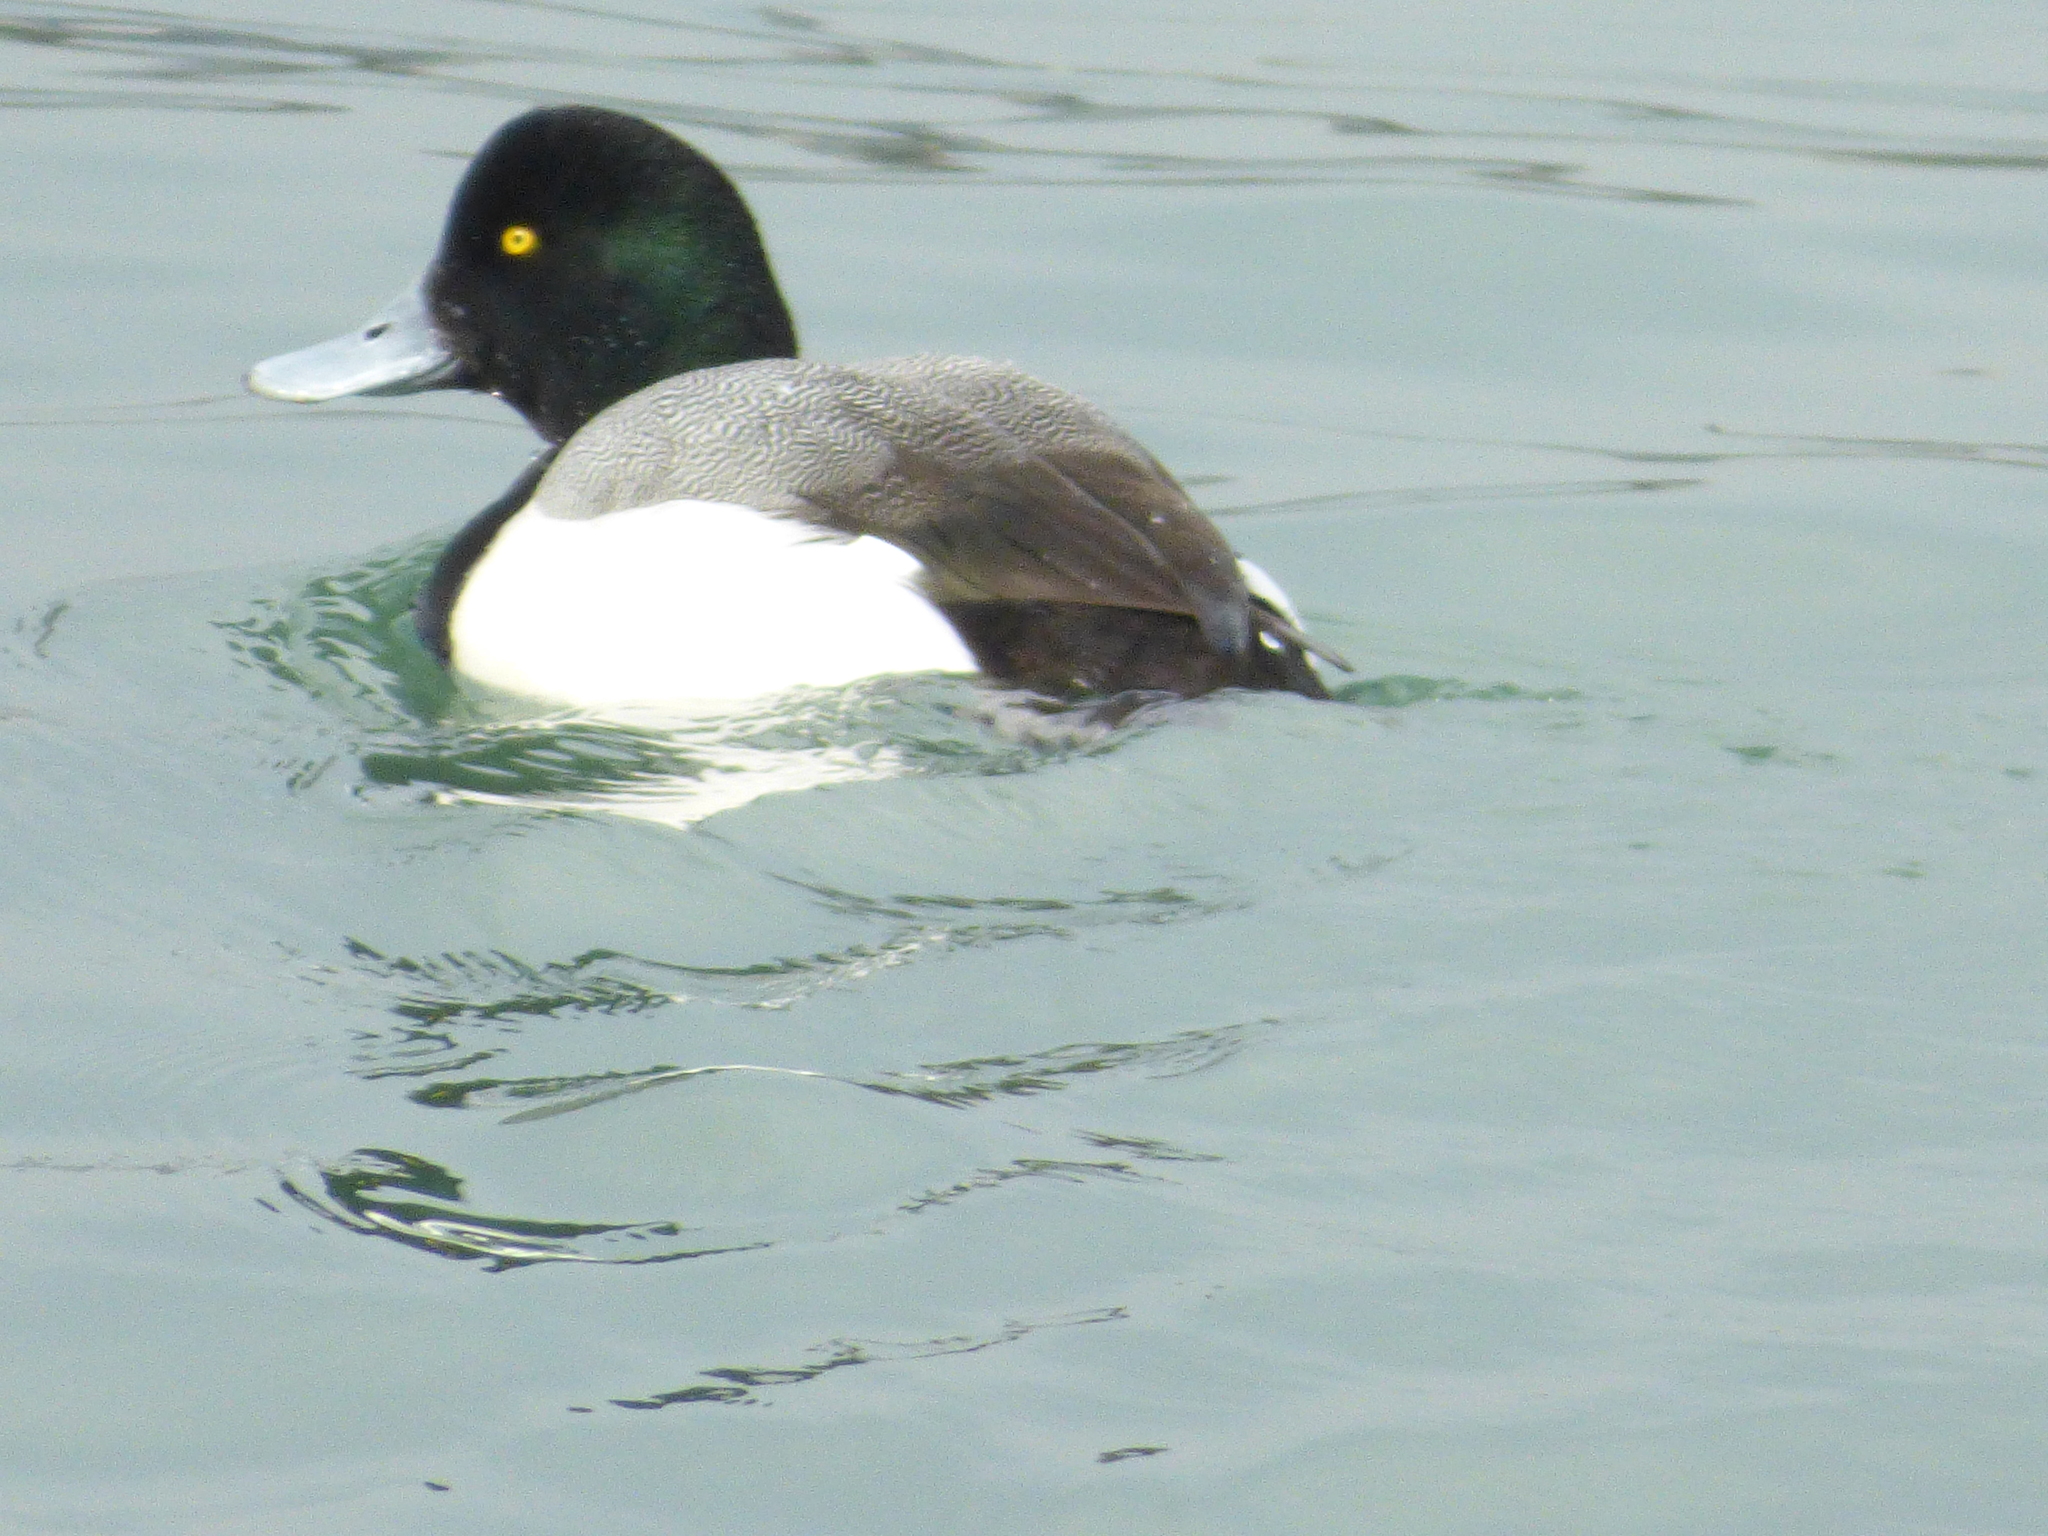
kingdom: Animalia
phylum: Chordata
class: Aves
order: Anseriformes
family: Anatidae
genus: Aythya
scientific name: Aythya marila
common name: Greater scaup
